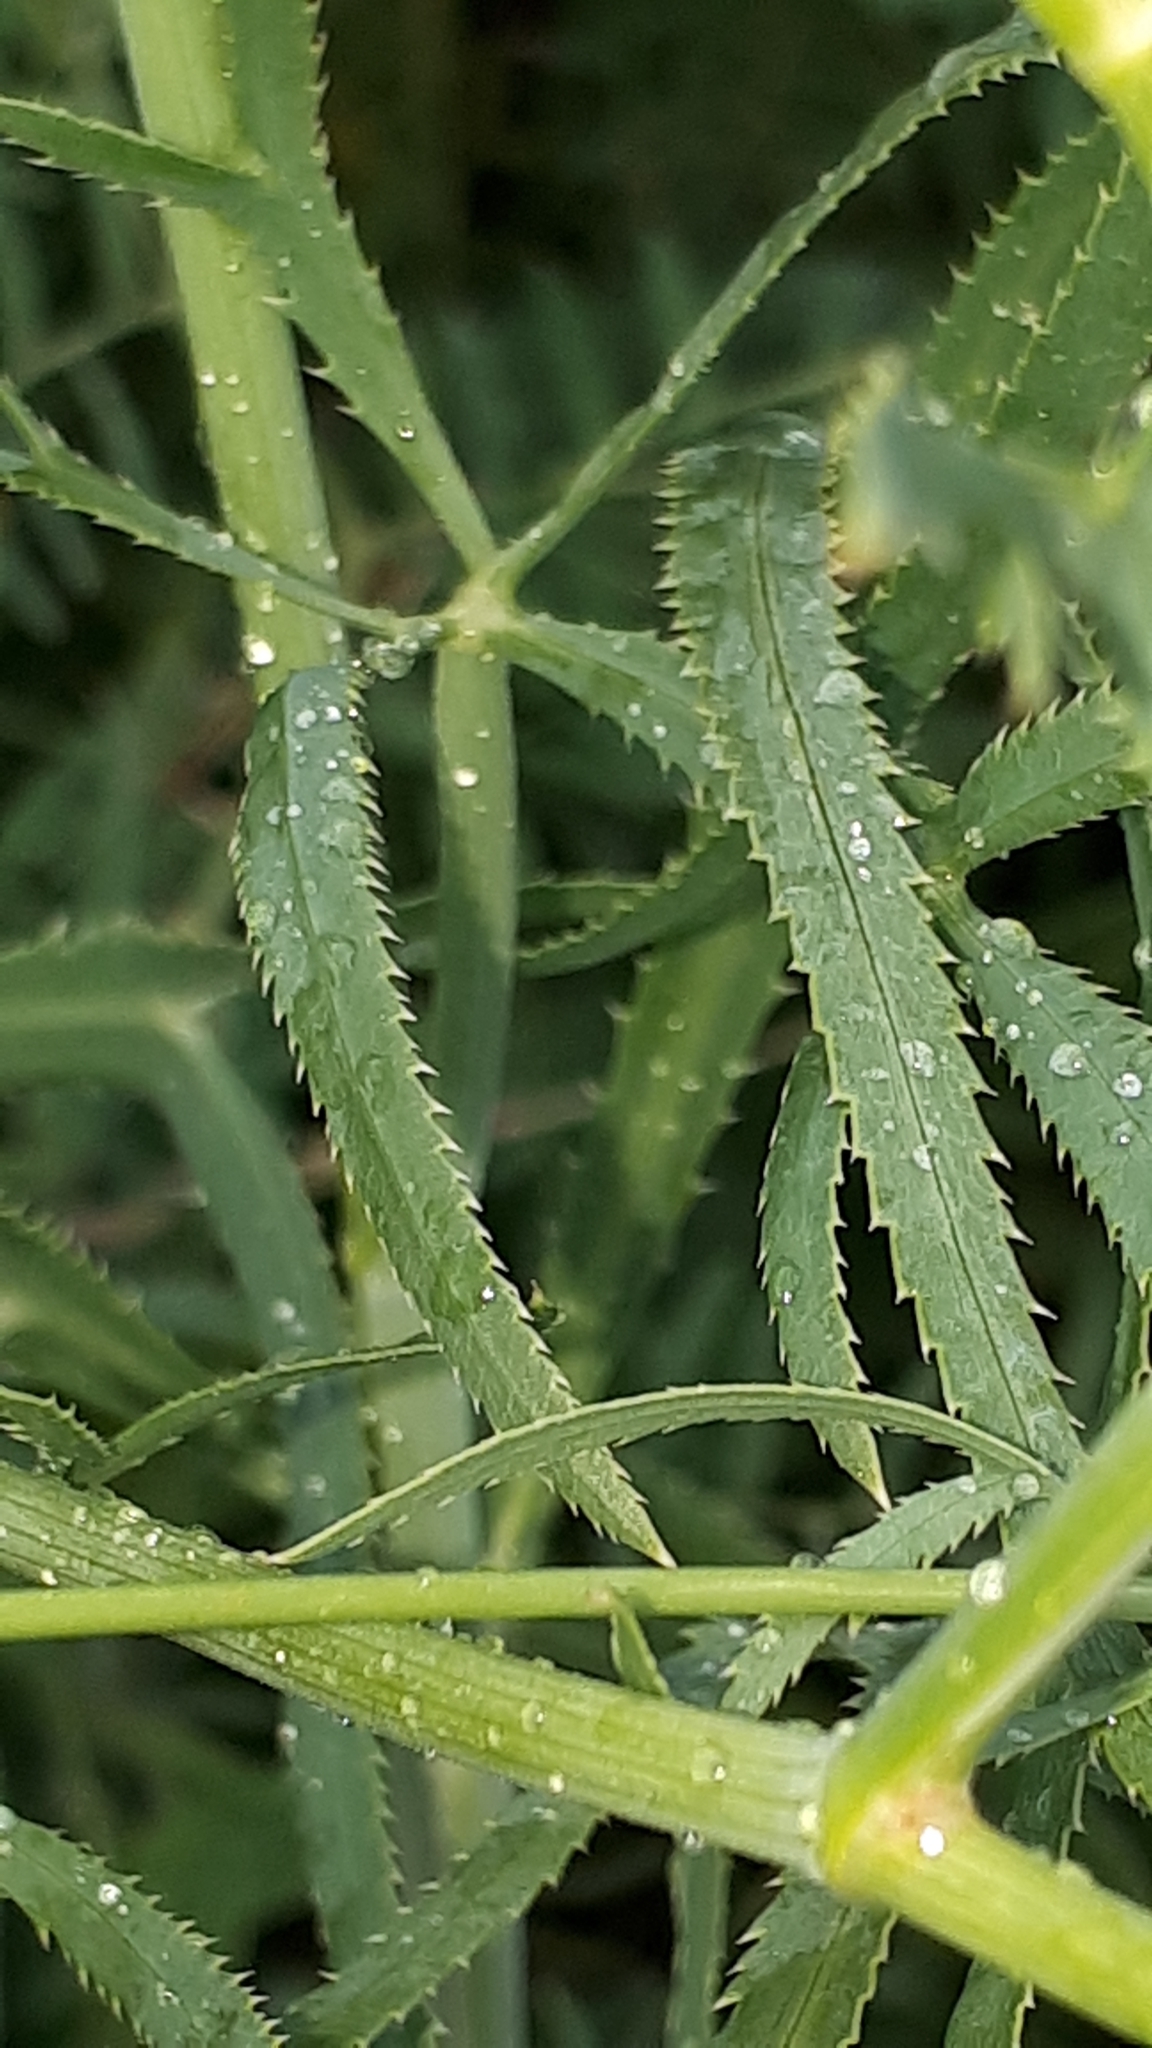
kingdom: Plantae
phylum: Tracheophyta
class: Magnoliopsida
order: Apiales
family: Apiaceae
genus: Falcaria
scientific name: Falcaria vulgaris
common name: Longleaf
